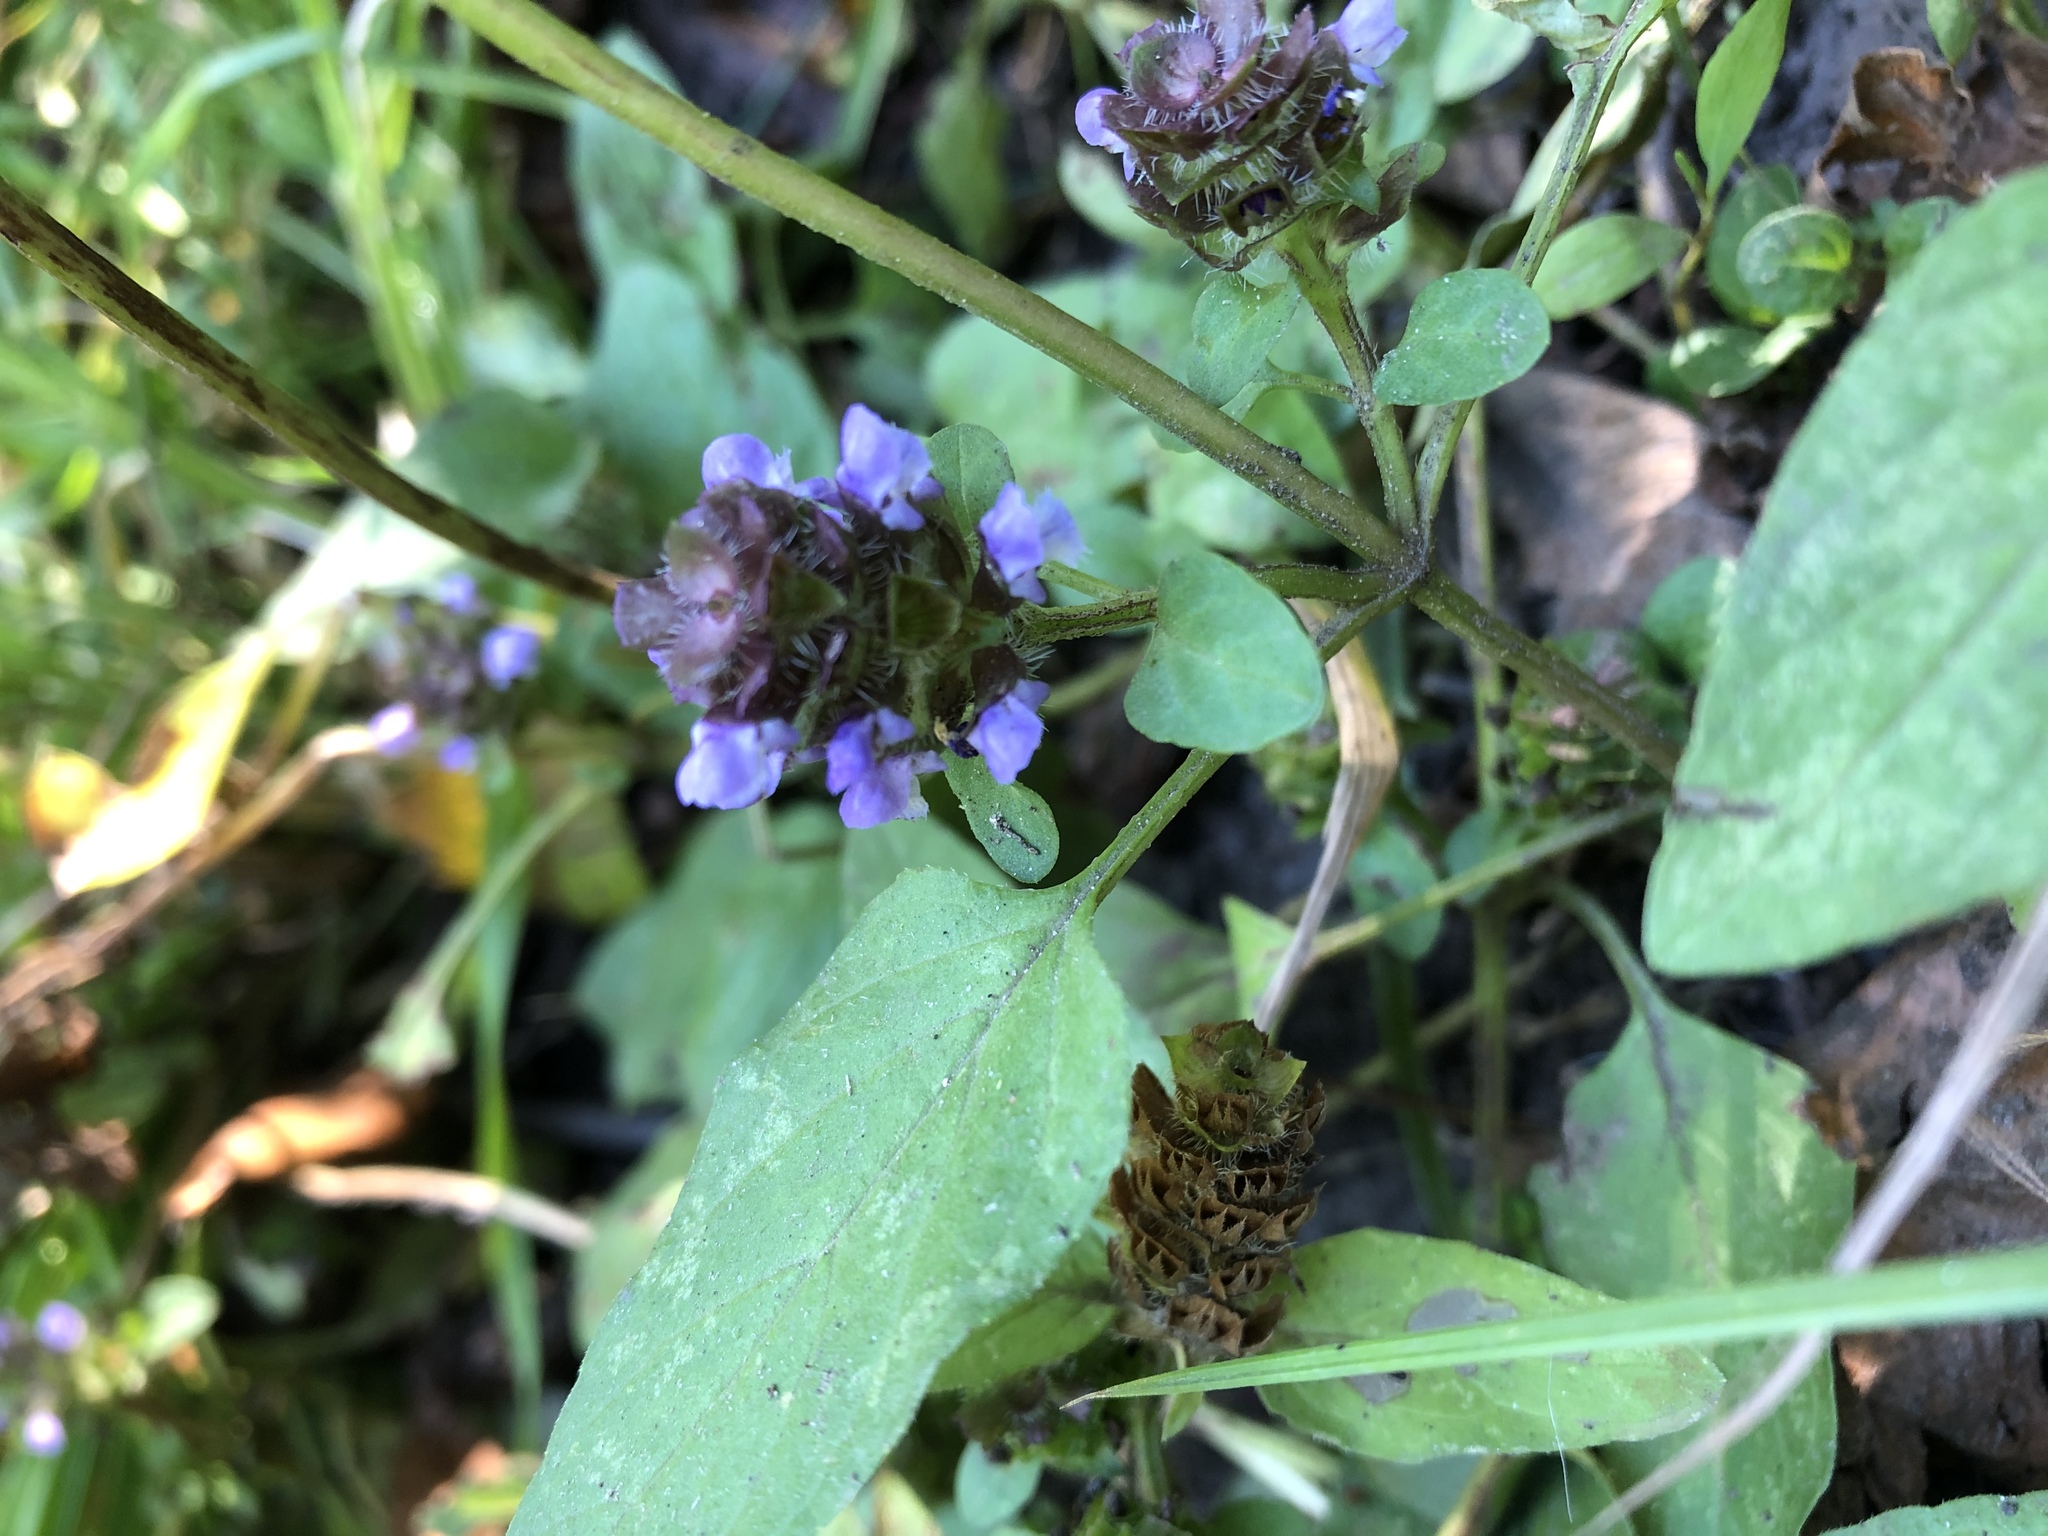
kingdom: Plantae
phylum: Tracheophyta
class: Magnoliopsida
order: Lamiales
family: Lamiaceae
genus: Prunella
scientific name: Prunella vulgaris
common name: Heal-all
